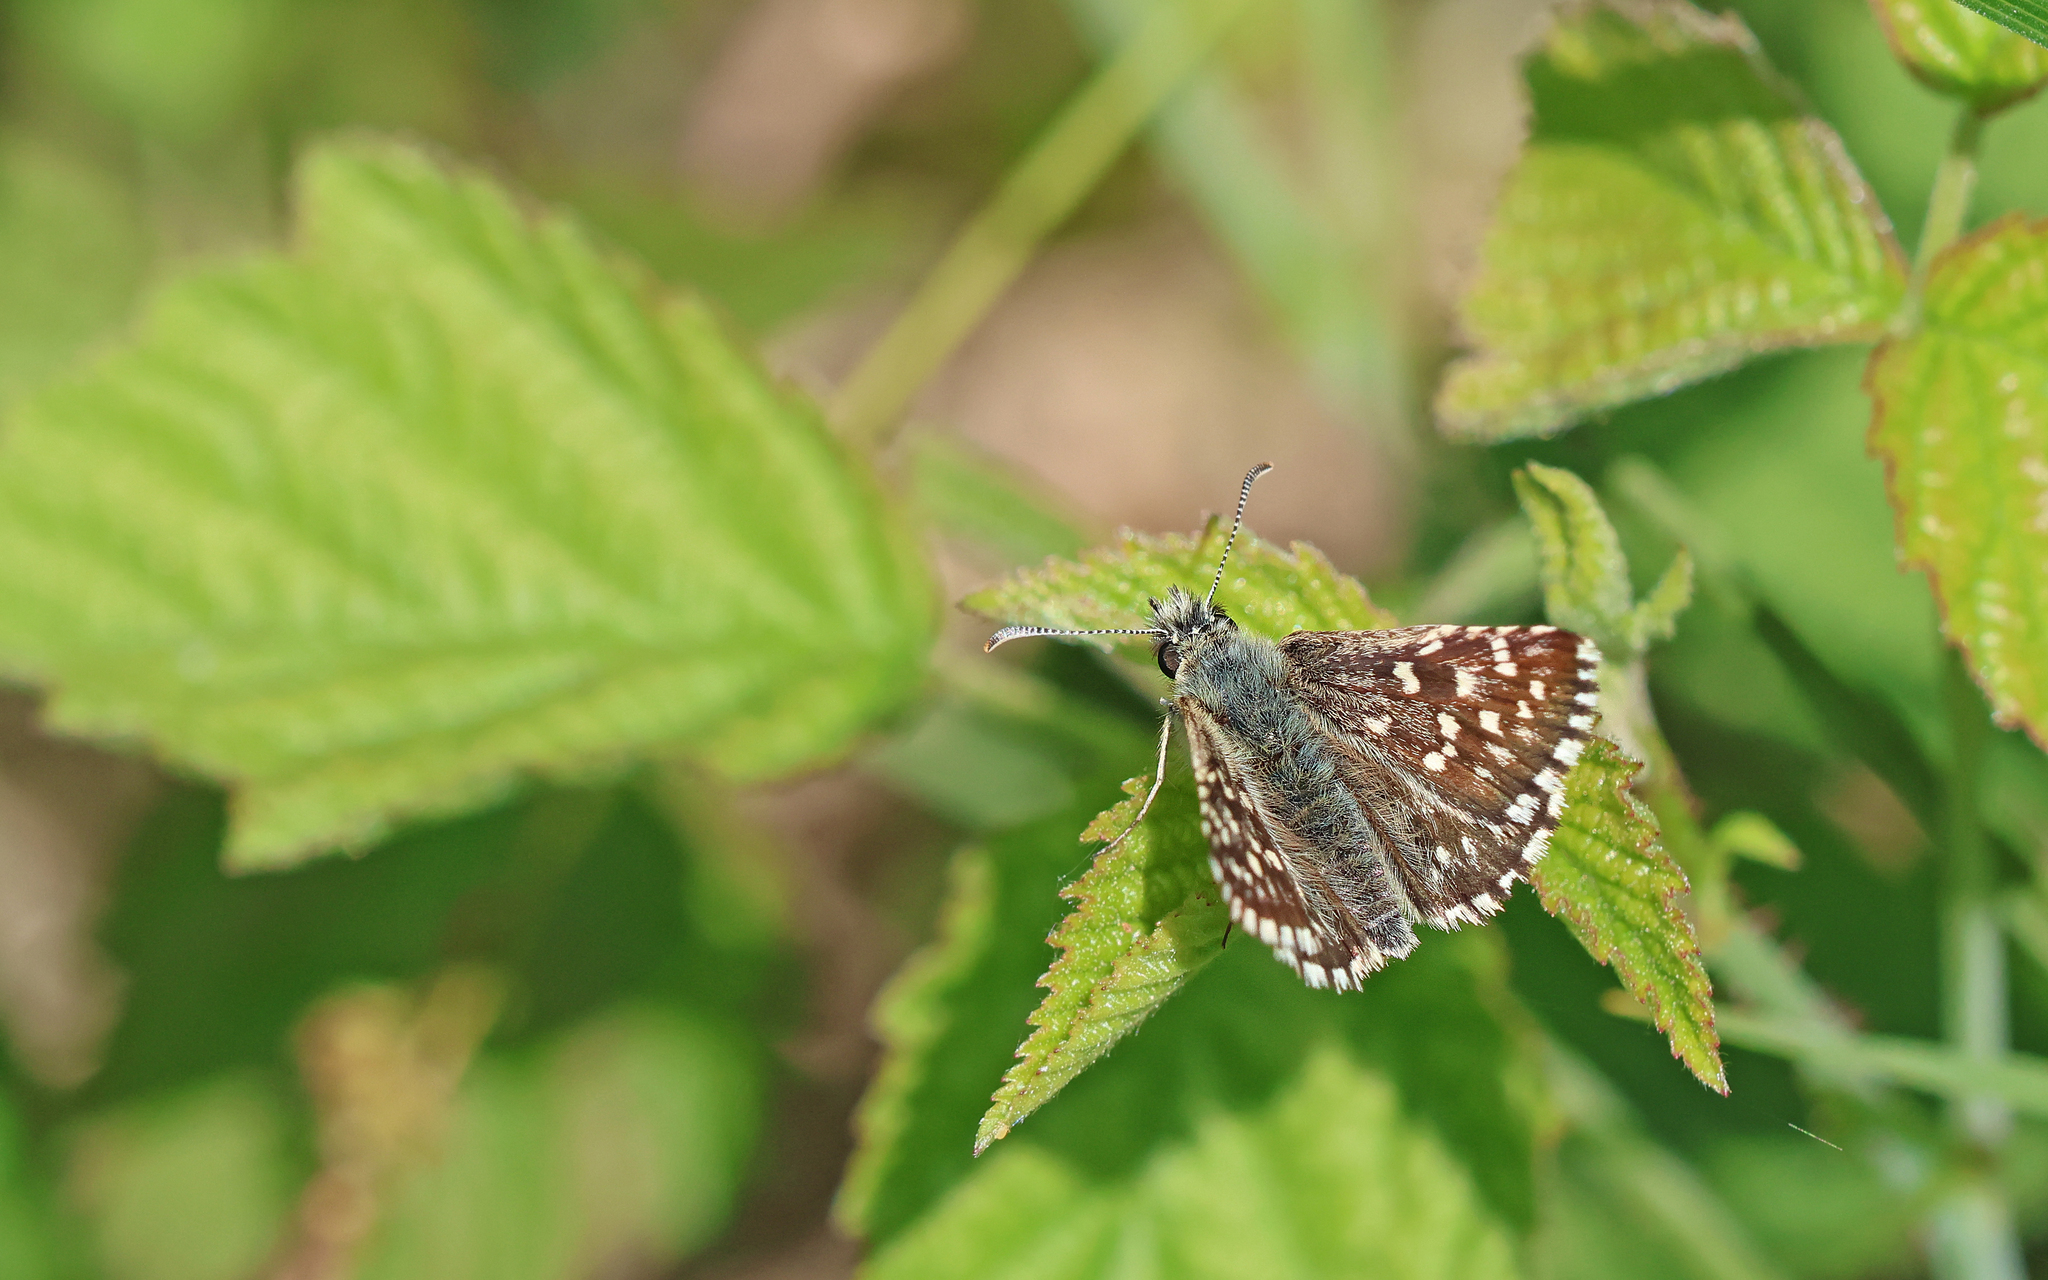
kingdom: Animalia
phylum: Arthropoda
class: Insecta
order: Lepidoptera
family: Hesperiidae
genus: Pyrgus
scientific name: Pyrgus malvae
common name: Grizzled skipper
